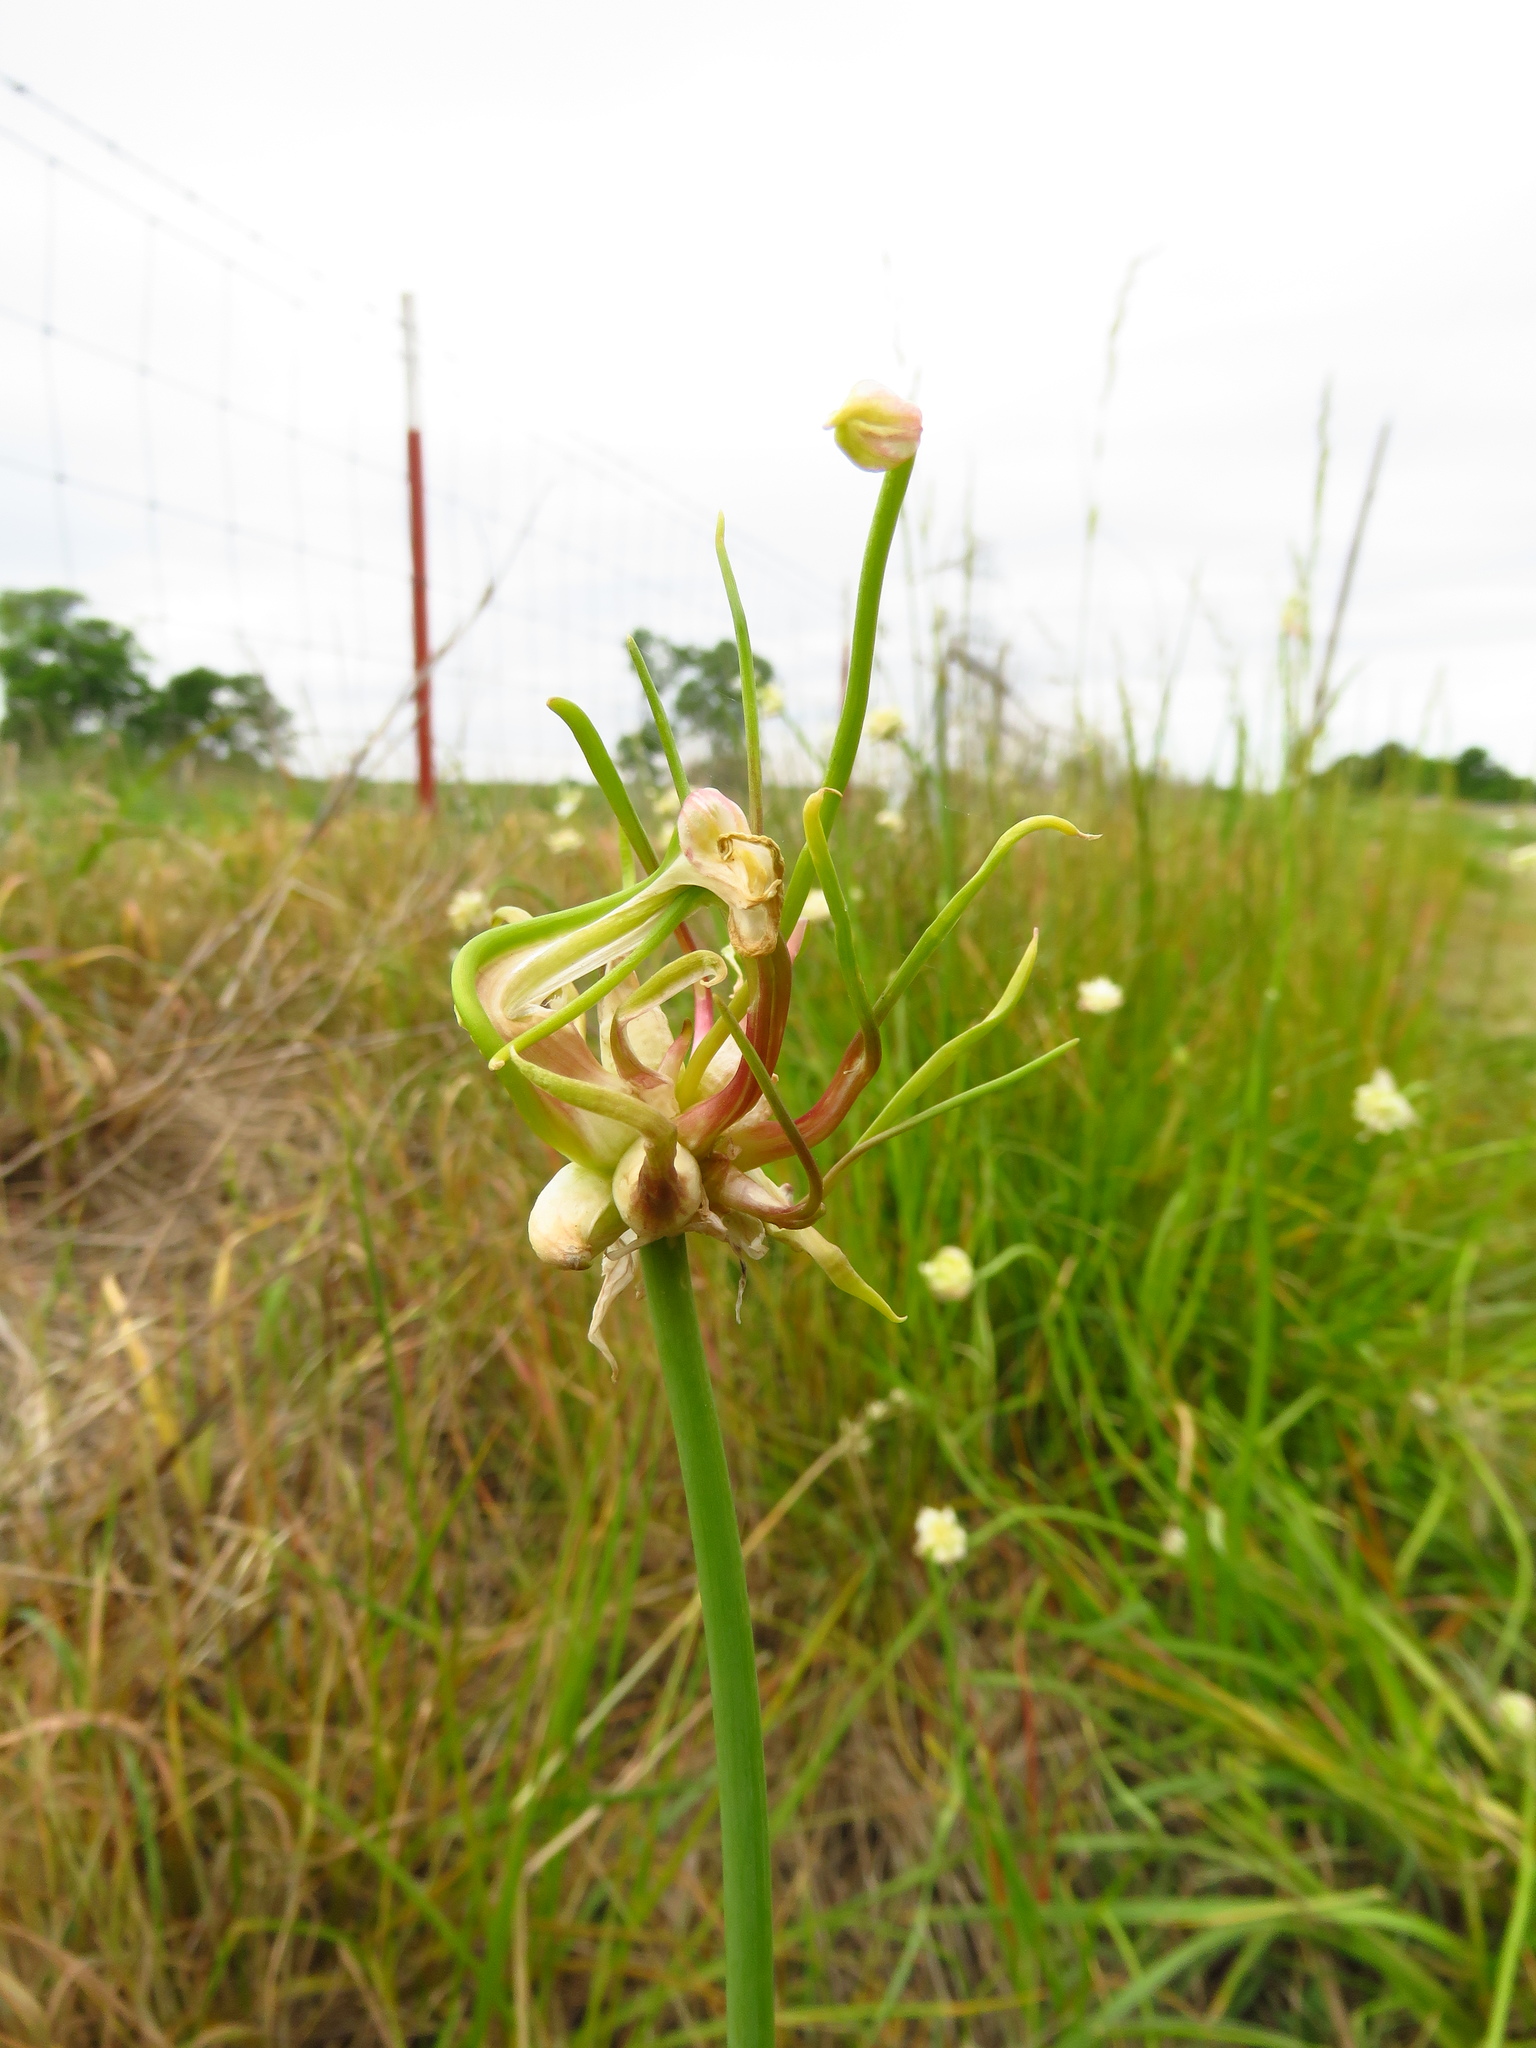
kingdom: Plantae
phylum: Tracheophyta
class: Liliopsida
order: Asparagales
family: Amaryllidaceae
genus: Allium
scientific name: Allium canadense
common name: Meadow garlic
